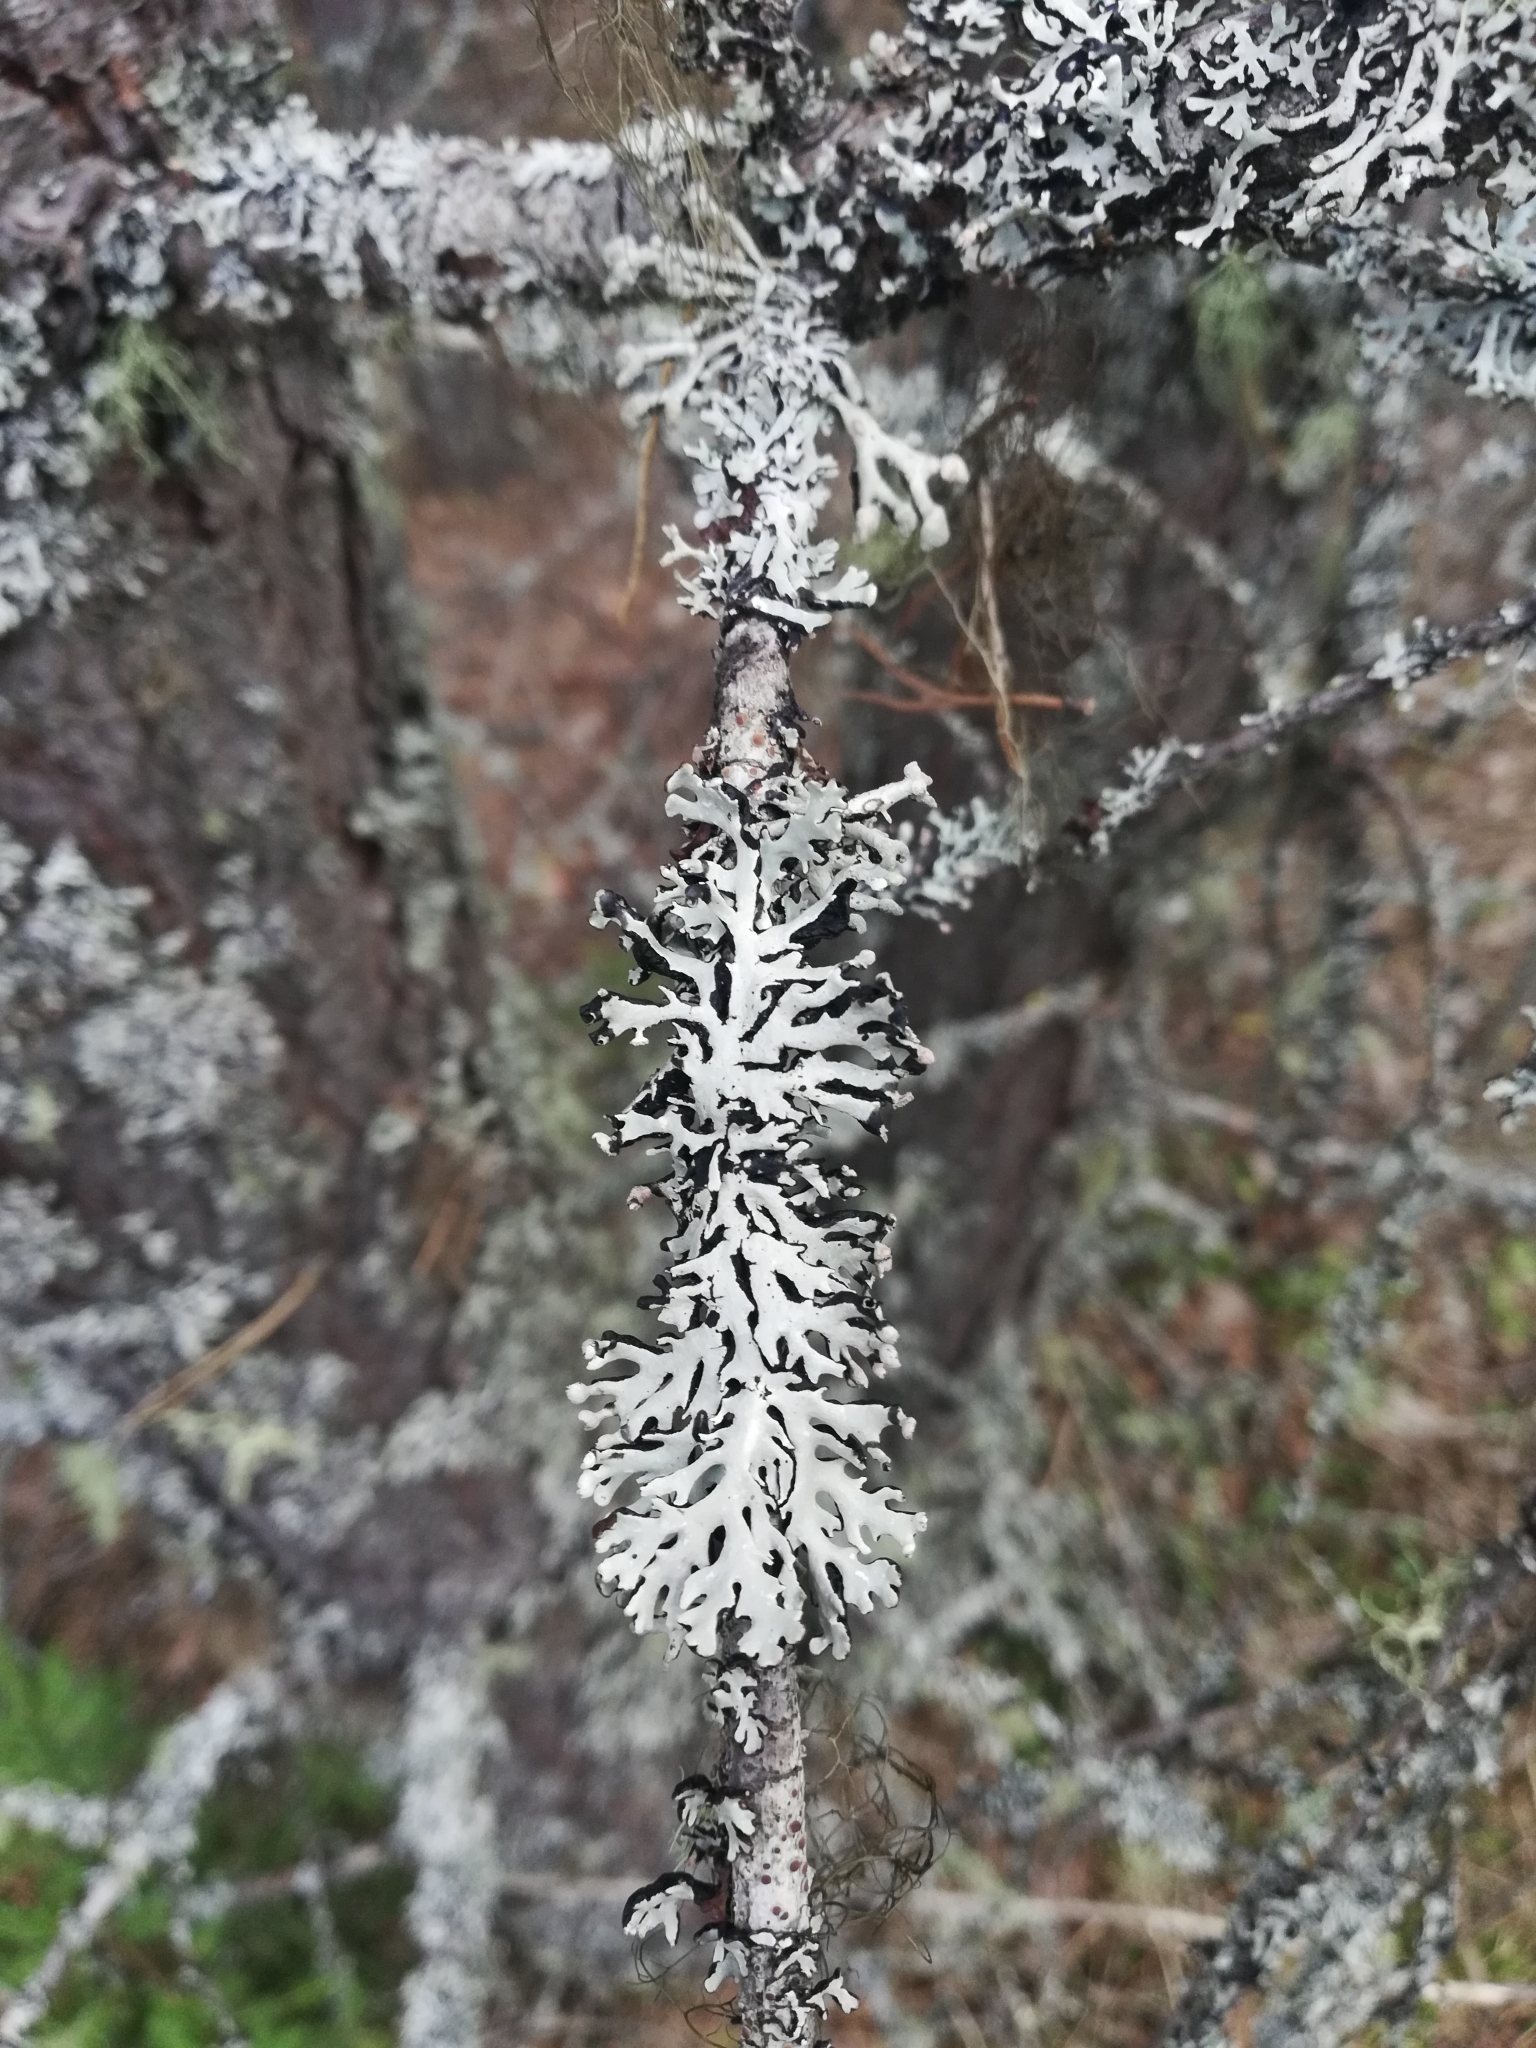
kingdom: Fungi
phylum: Ascomycota
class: Lecanoromycetes
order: Lecanorales
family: Parmeliaceae
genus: Hypogymnia
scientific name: Hypogymnia physodes
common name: Dark crottle
